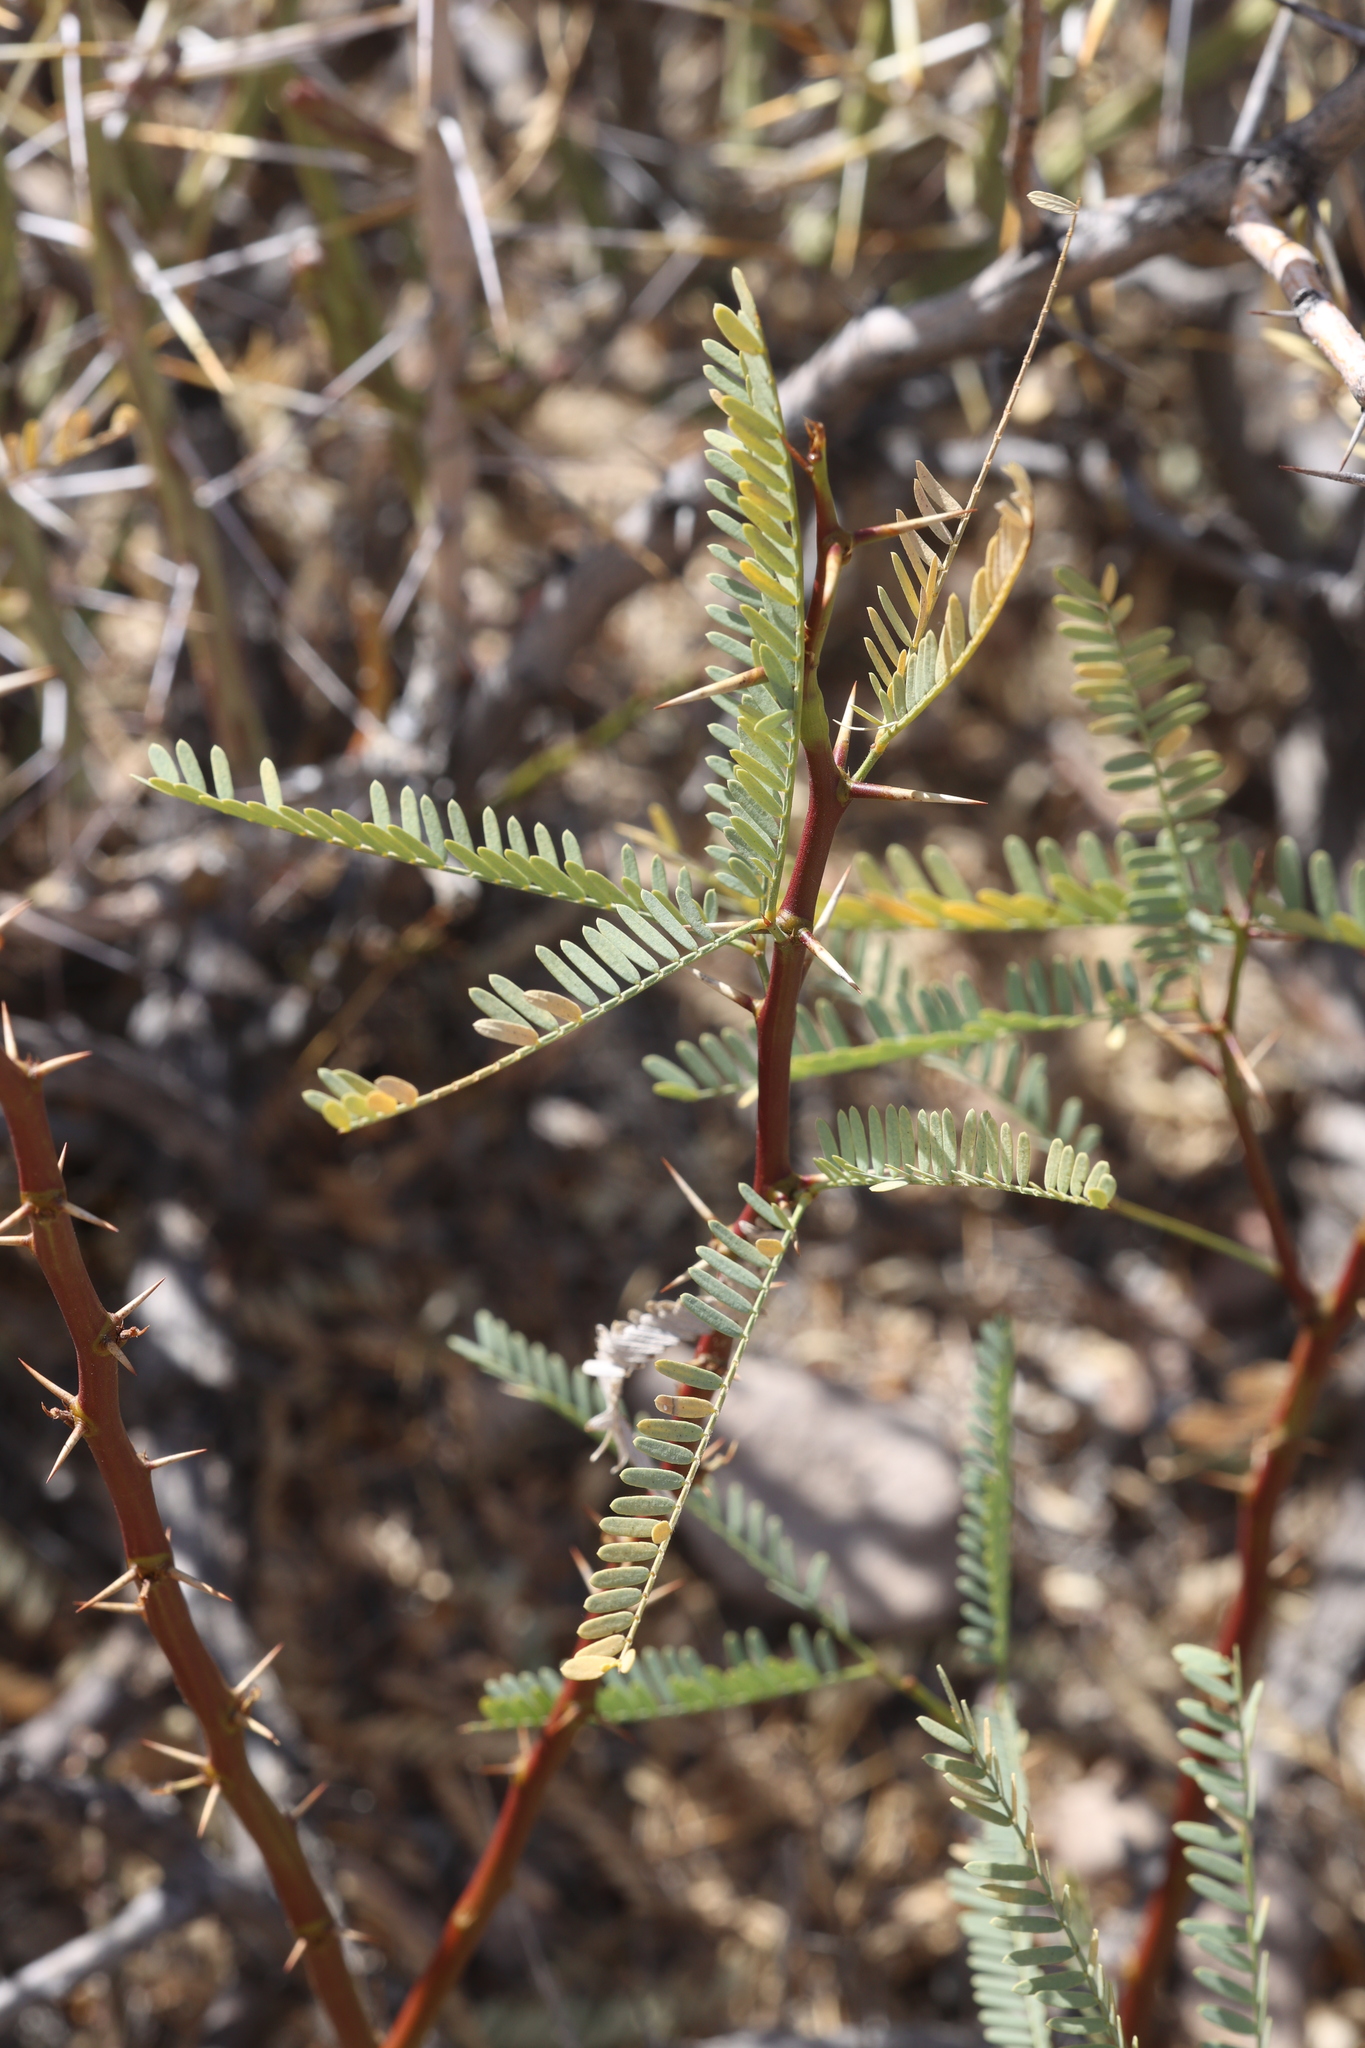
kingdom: Plantae
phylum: Tracheophyta
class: Magnoliopsida
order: Fabales
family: Fabaceae
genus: Prosopis
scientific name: Prosopis pubescens
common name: Screw-bean
